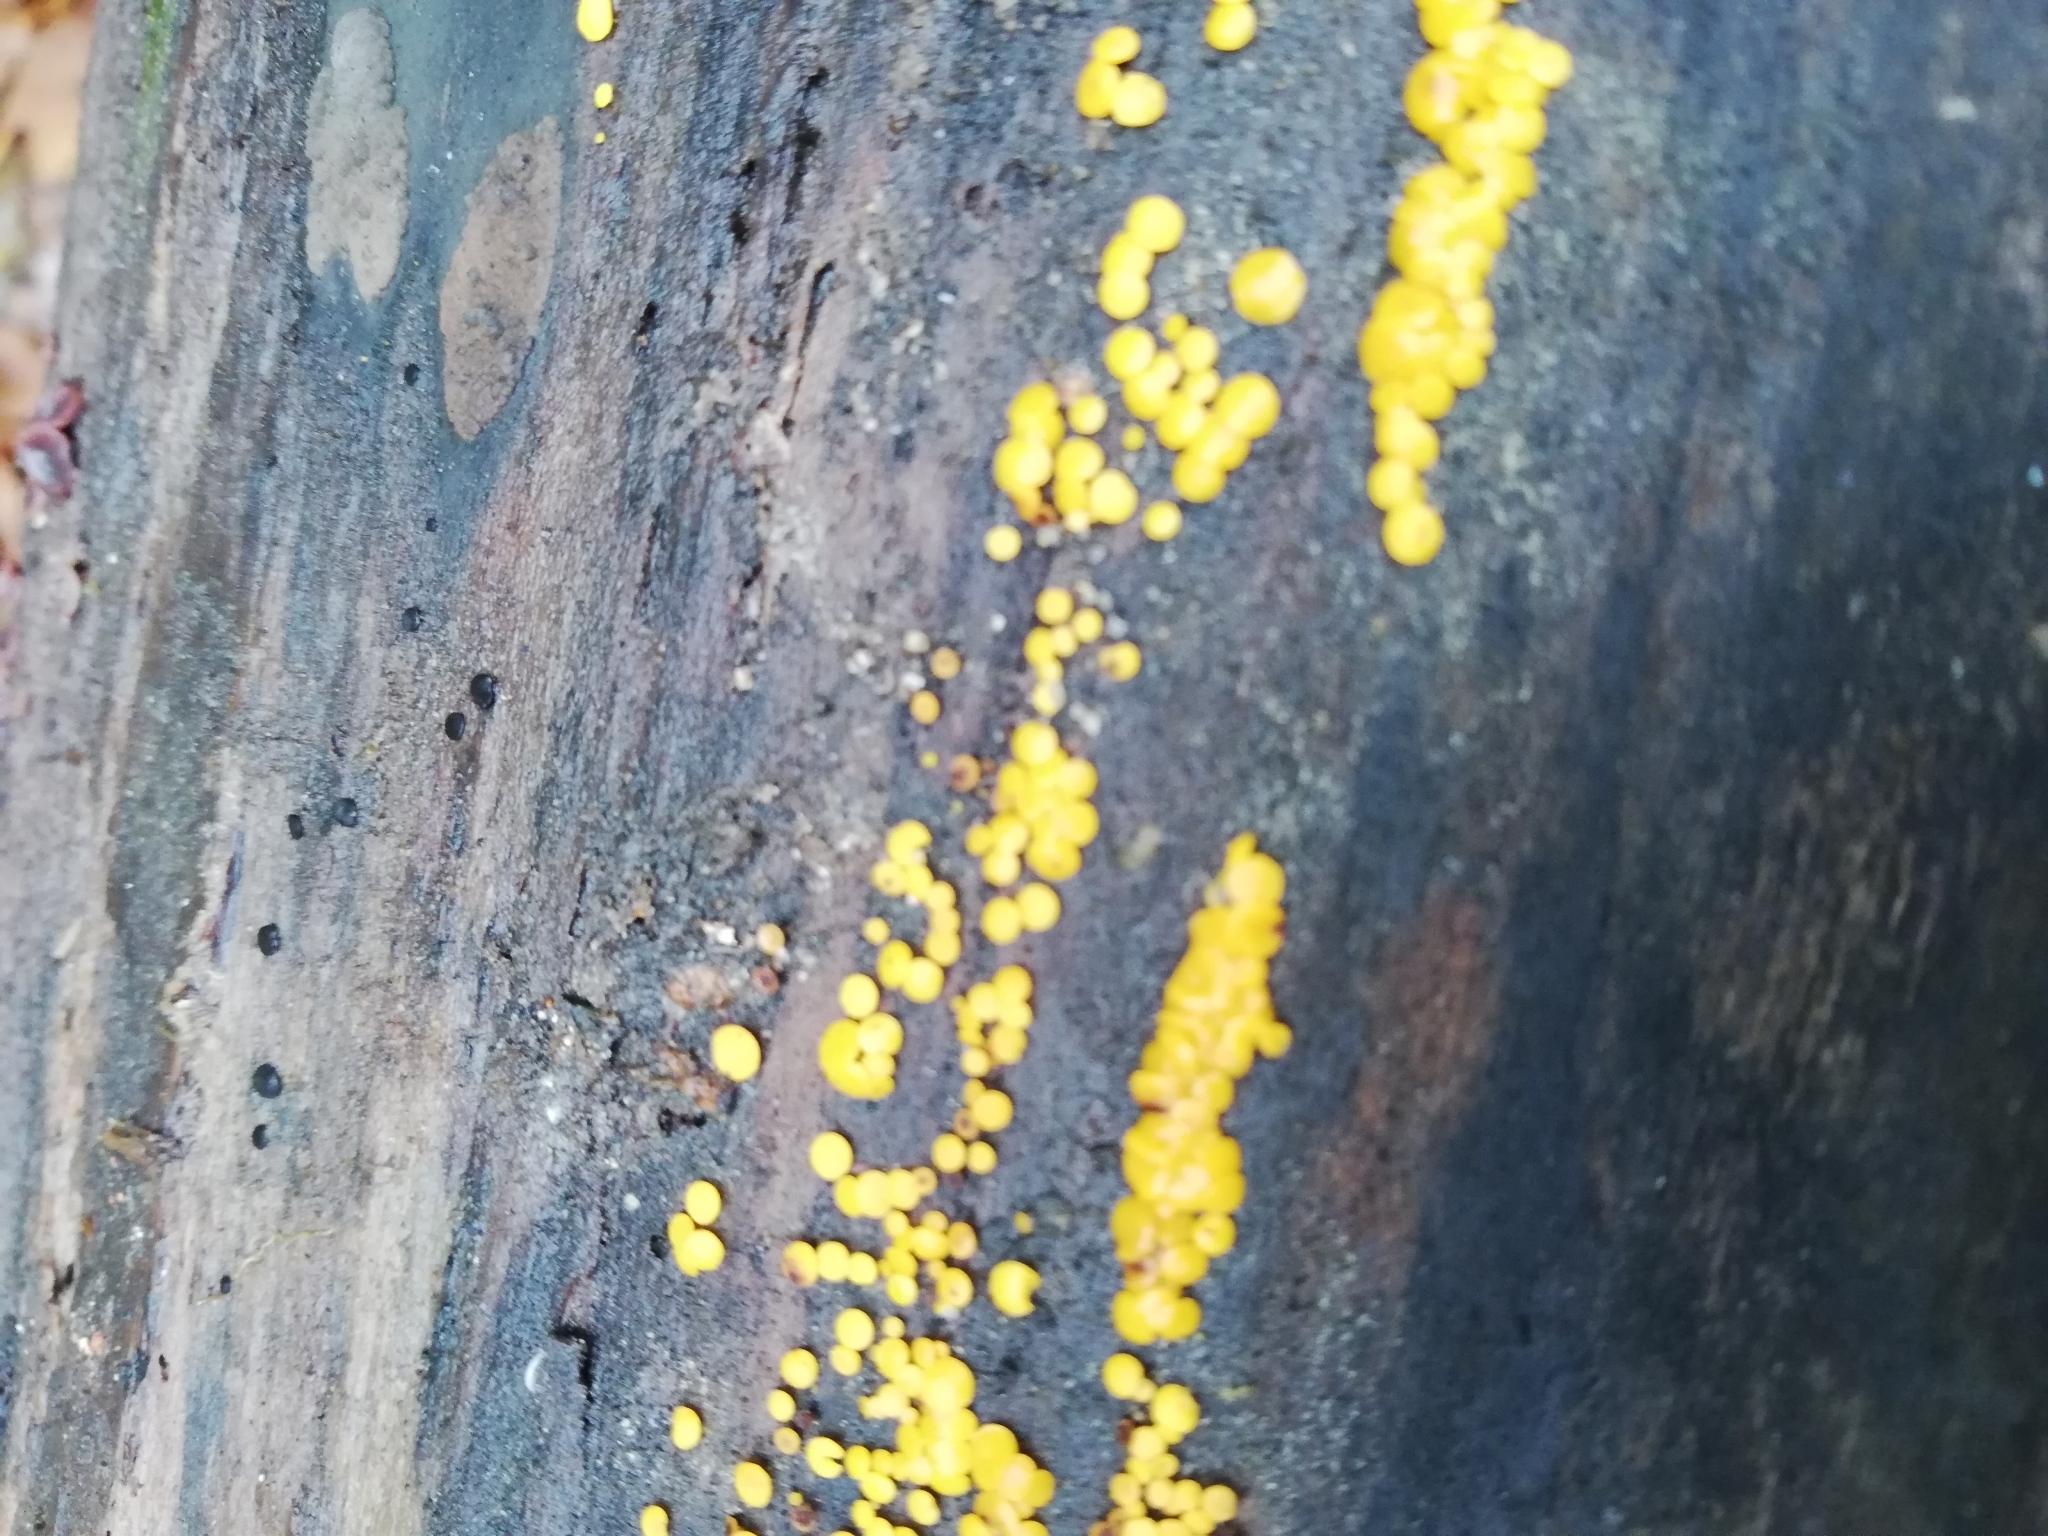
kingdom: Fungi
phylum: Ascomycota
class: Leotiomycetes
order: Helotiales
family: Pezizellaceae
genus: Calycina
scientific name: Calycina citrina
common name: Yellow fairy cups
